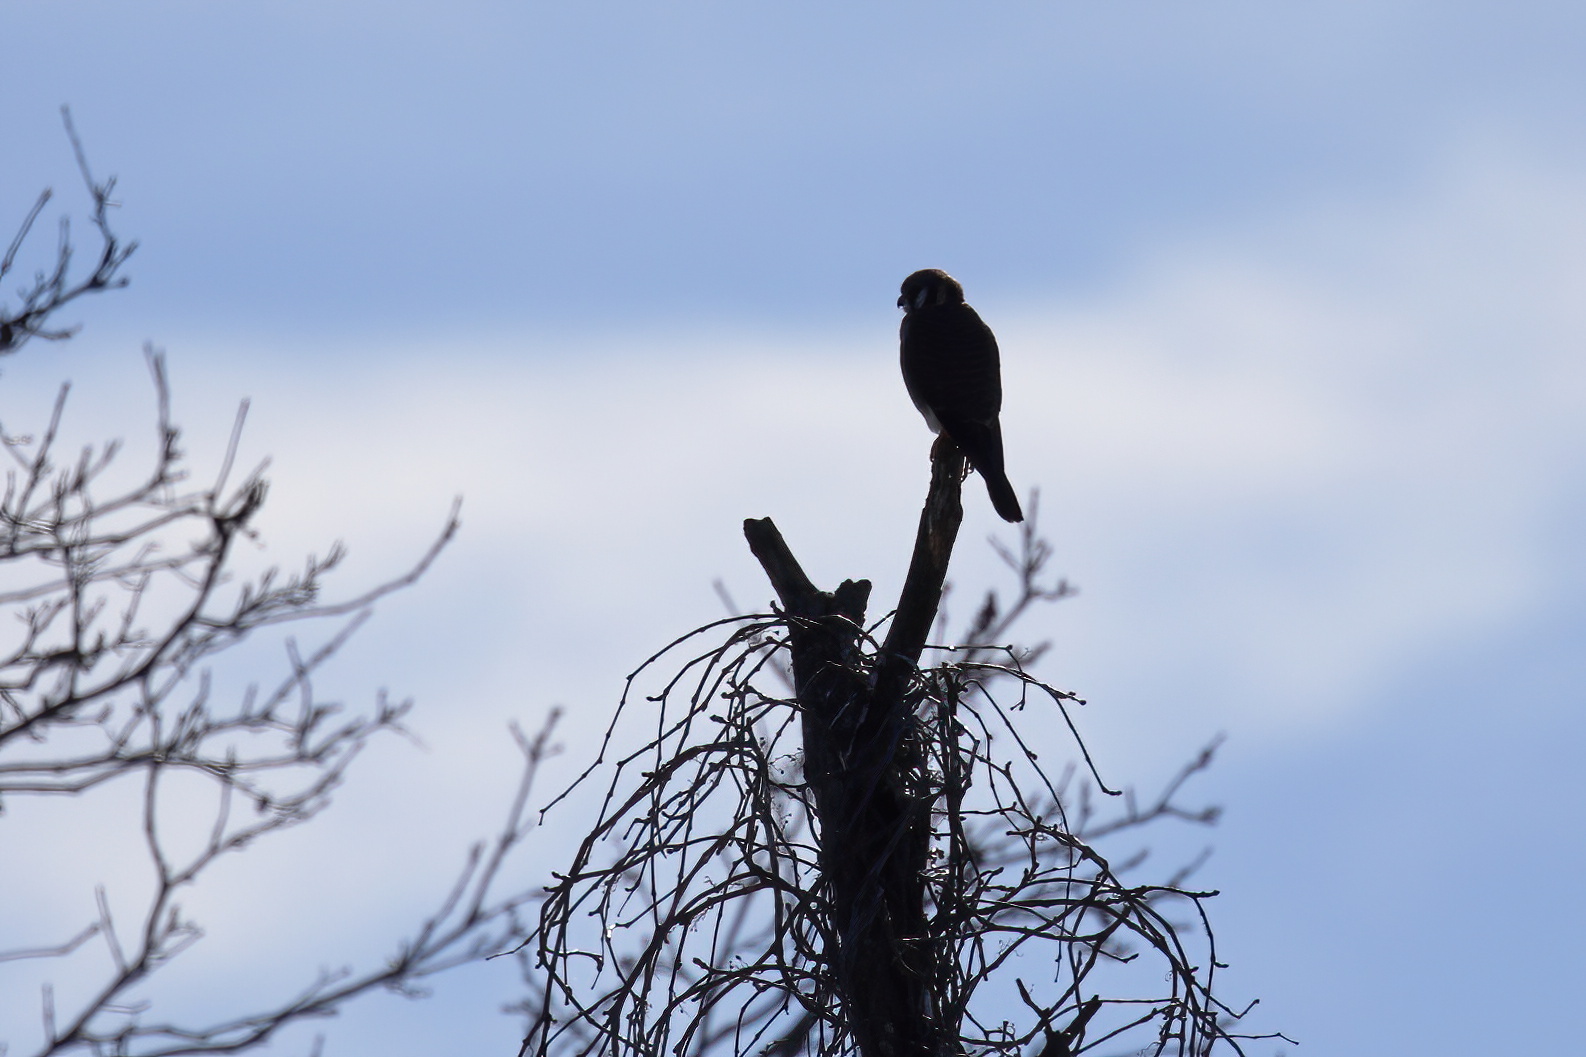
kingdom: Animalia
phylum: Chordata
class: Aves
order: Falconiformes
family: Falconidae
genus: Falco
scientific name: Falco sparverius
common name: American kestrel
